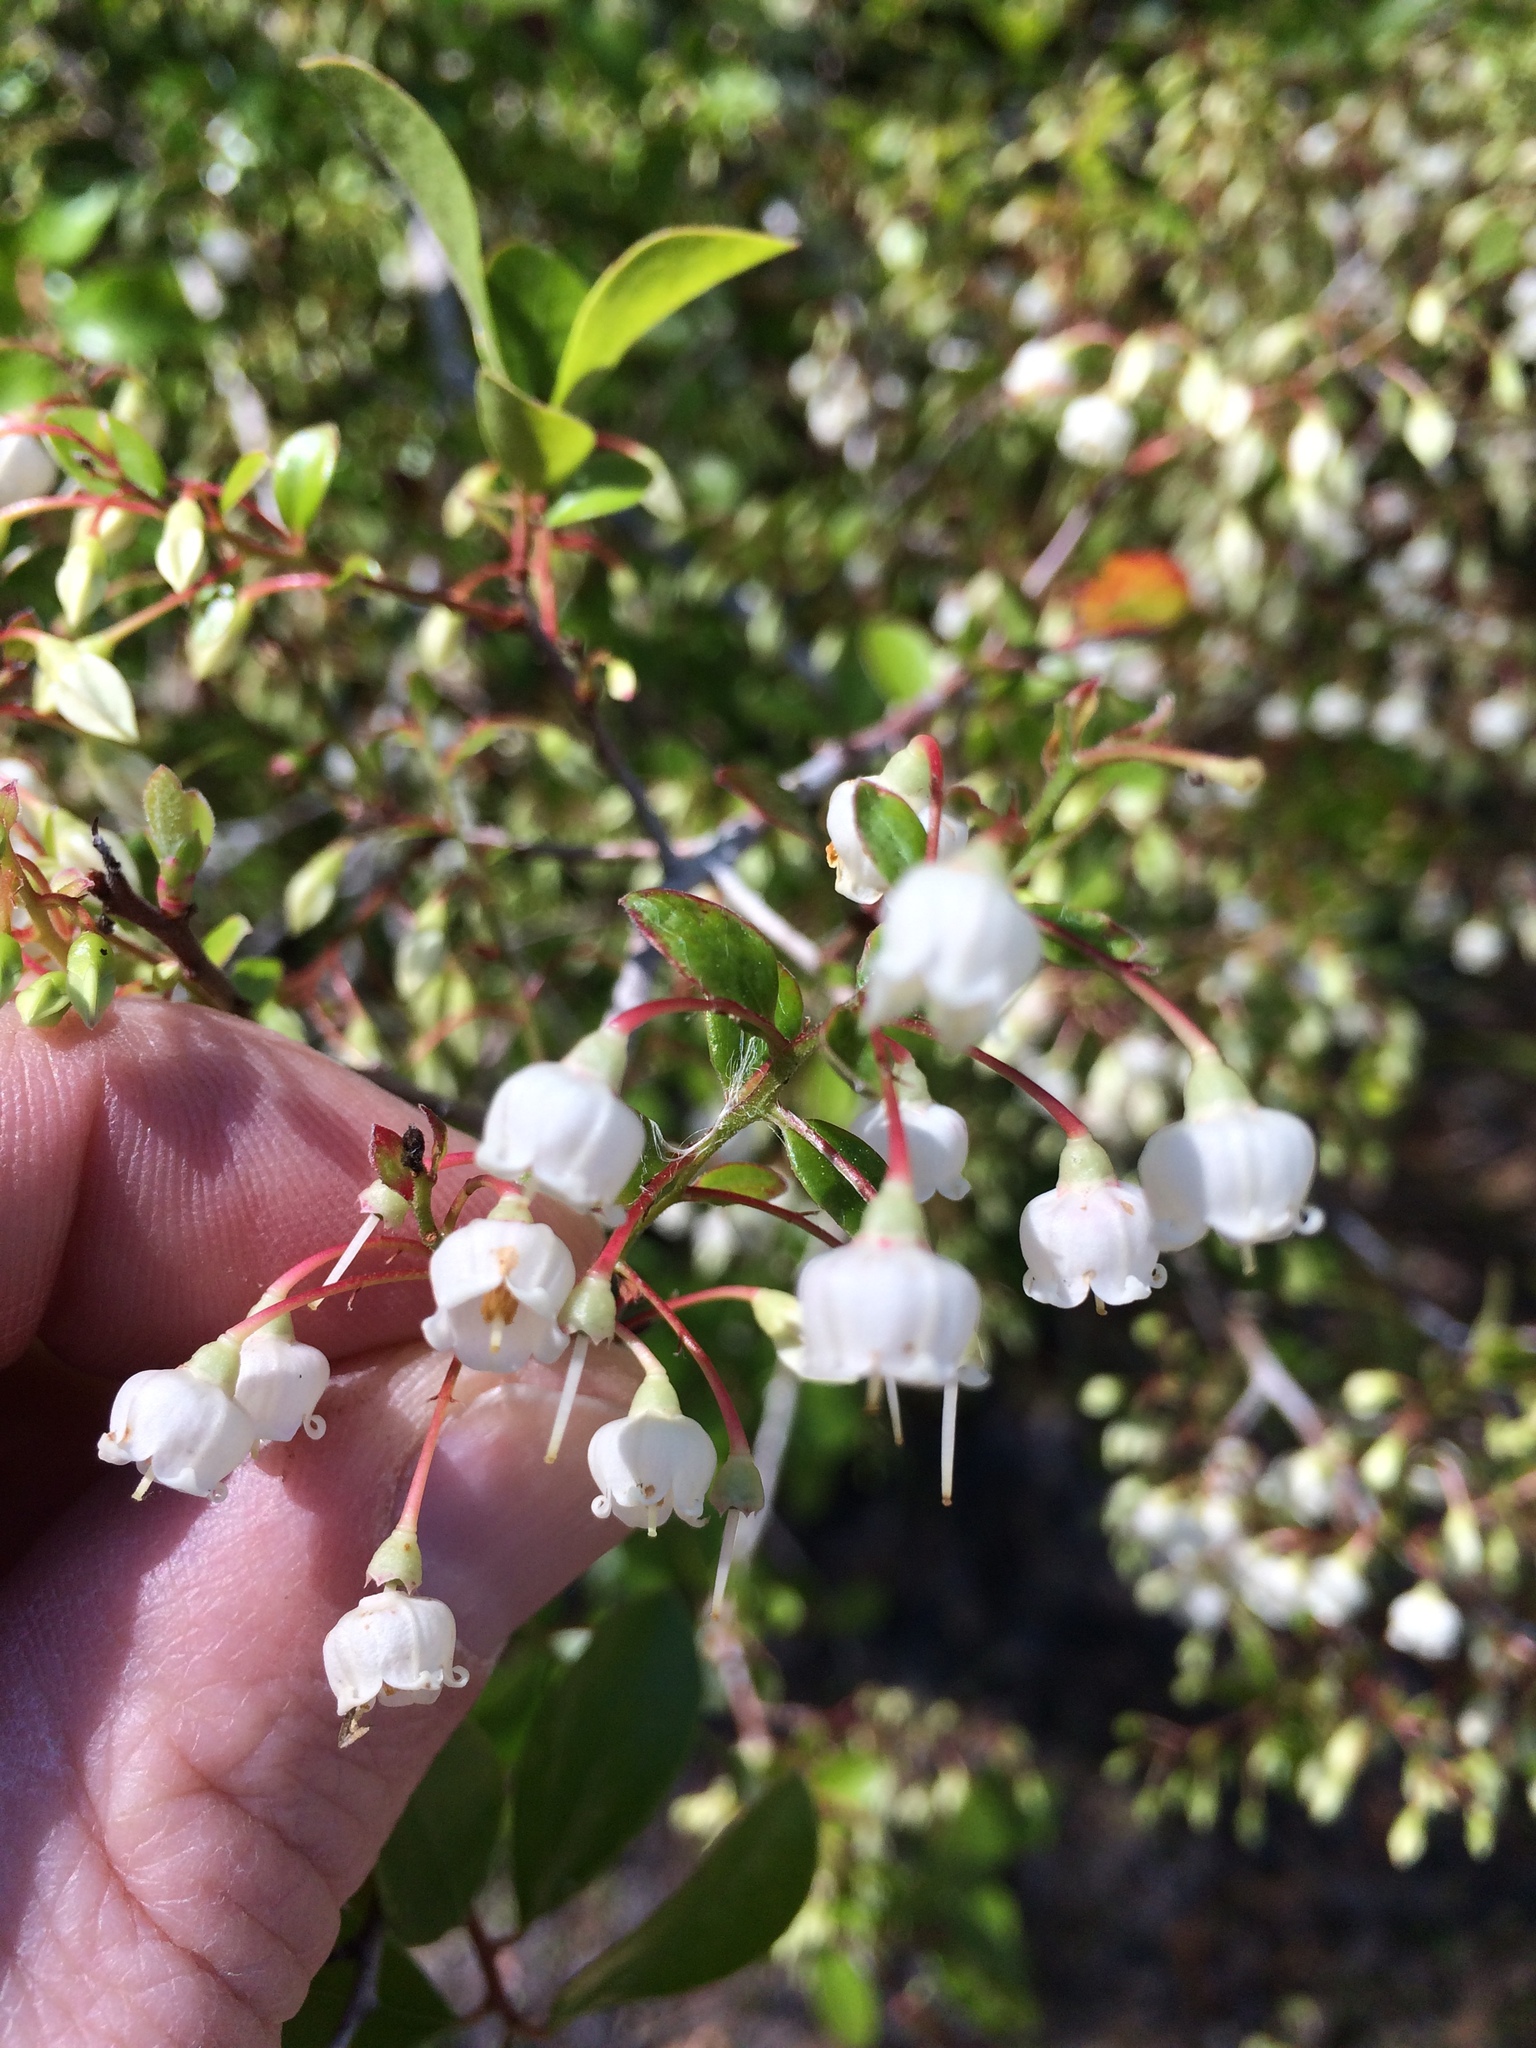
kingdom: Plantae
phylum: Tracheophyta
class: Magnoliopsida
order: Ericales
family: Ericaceae
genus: Vaccinium
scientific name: Vaccinium arboreum
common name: Farkleberry
